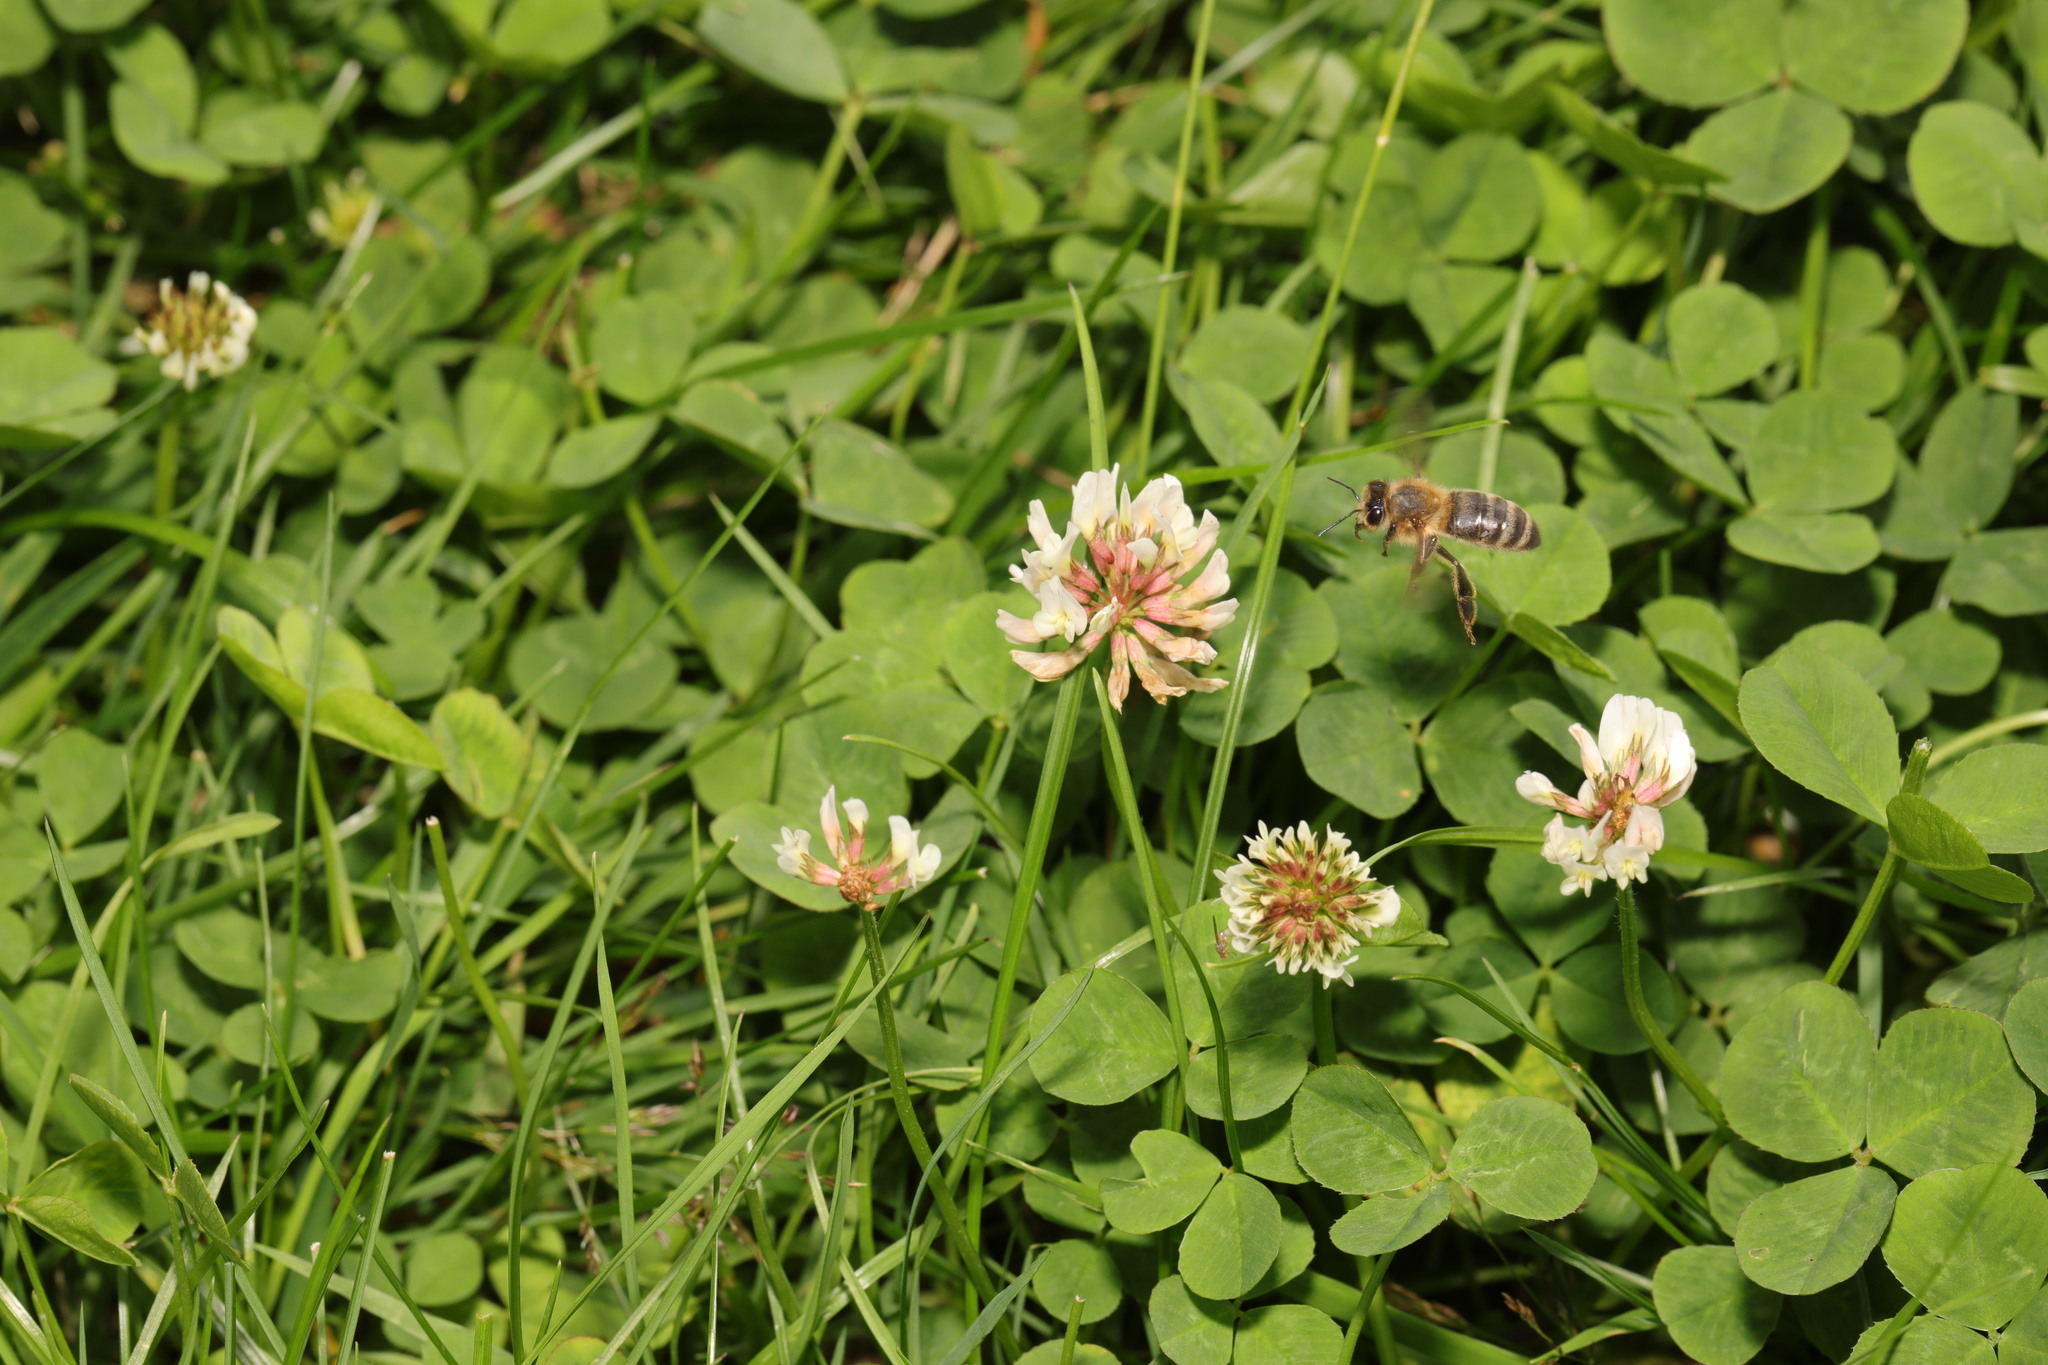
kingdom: Plantae
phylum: Tracheophyta
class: Magnoliopsida
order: Fabales
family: Fabaceae
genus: Trifolium
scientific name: Trifolium repens
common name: White clover
